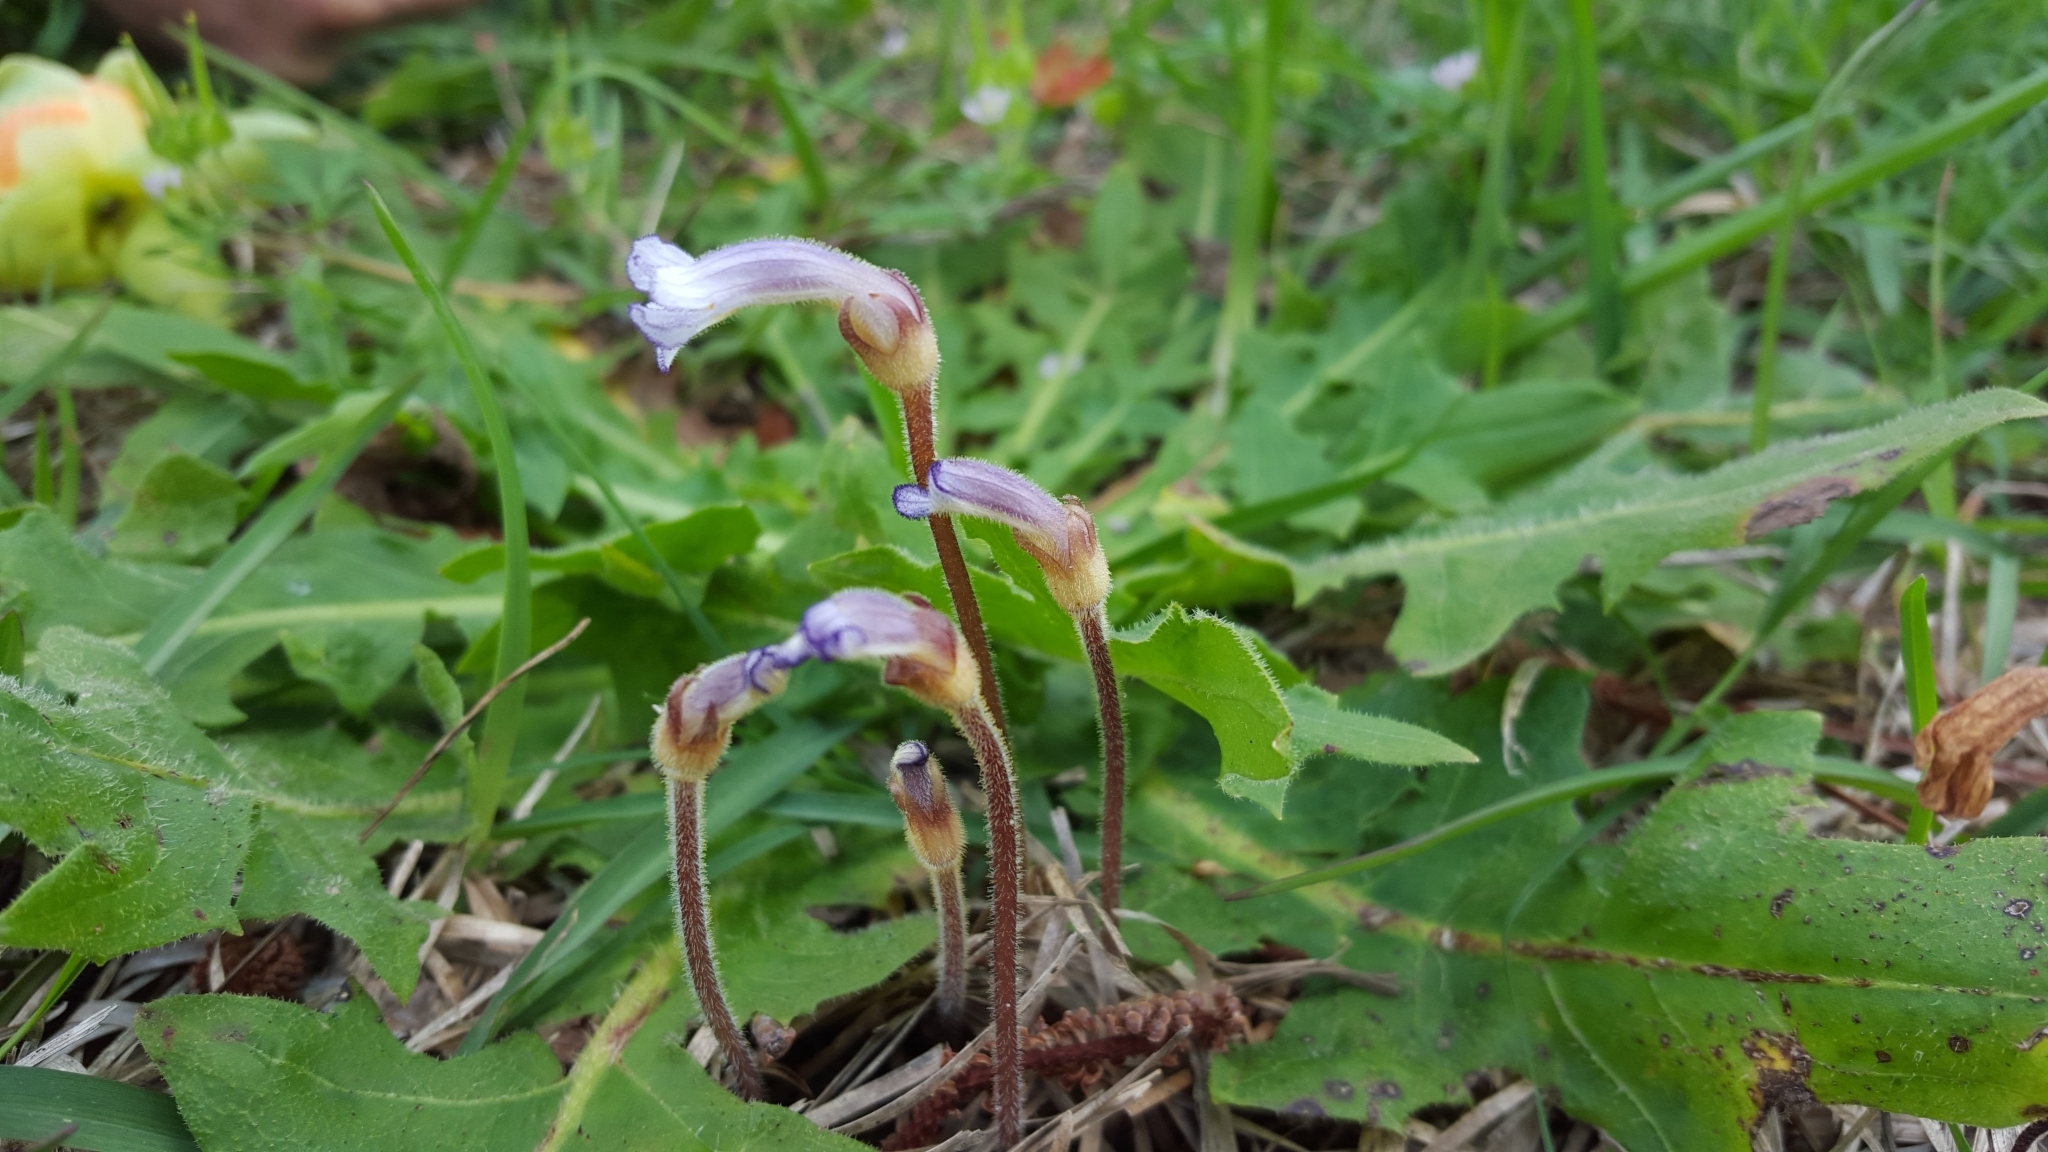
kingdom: Plantae
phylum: Tracheophyta
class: Magnoliopsida
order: Lamiales
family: Orobanchaceae
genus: Aphyllon
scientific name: Aphyllon uniflorum
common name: One-flowered broomrape
